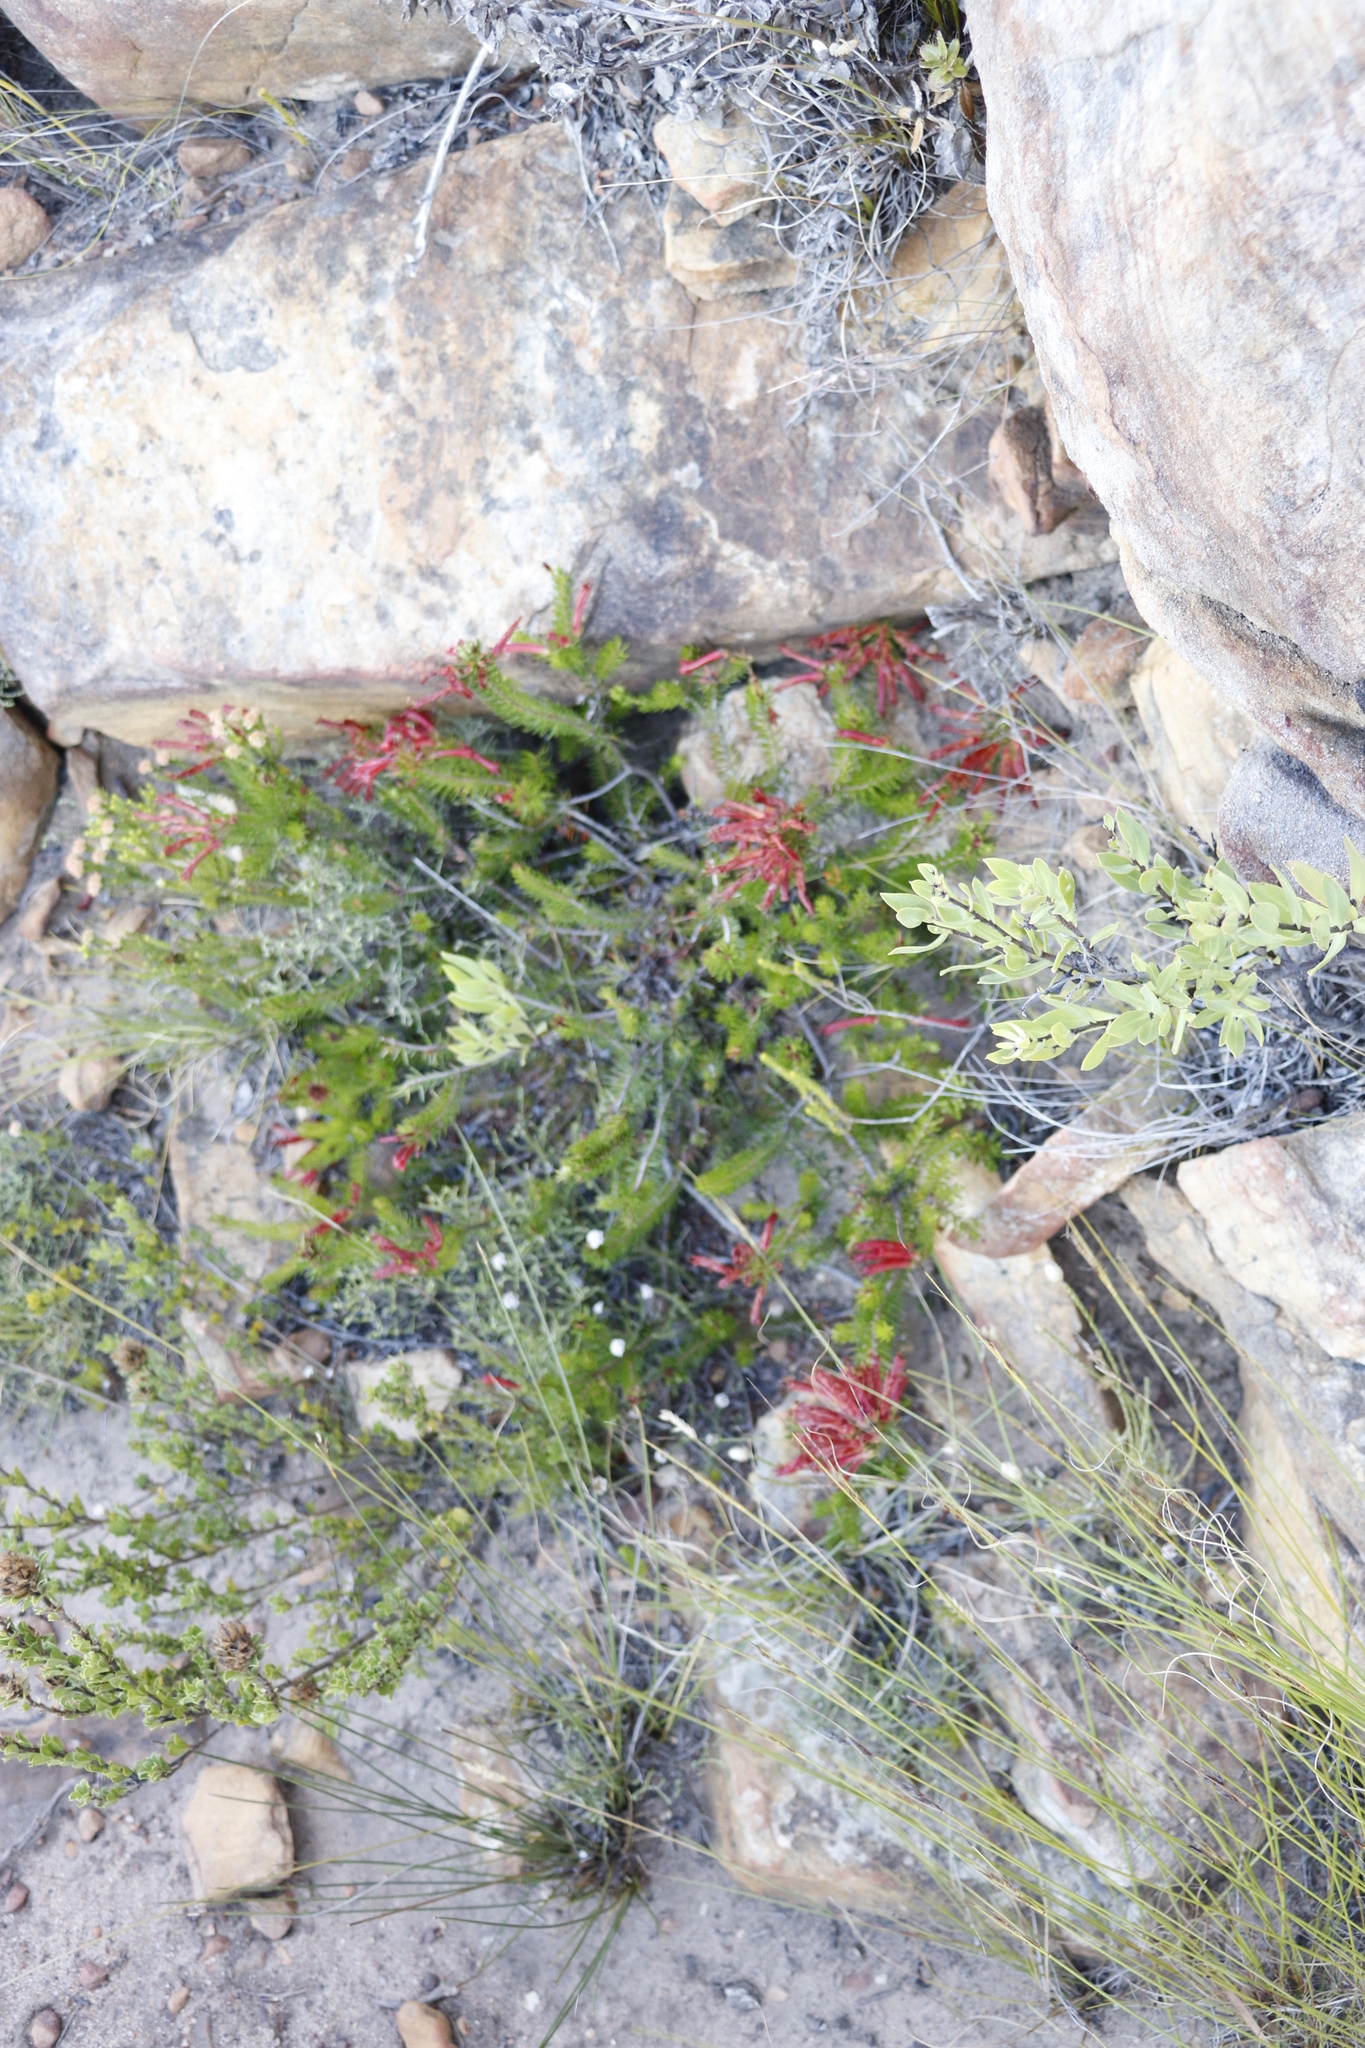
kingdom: Plantae
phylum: Tracheophyta
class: Magnoliopsida
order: Ericales
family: Ericaceae
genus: Erica
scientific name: Erica nevillei
